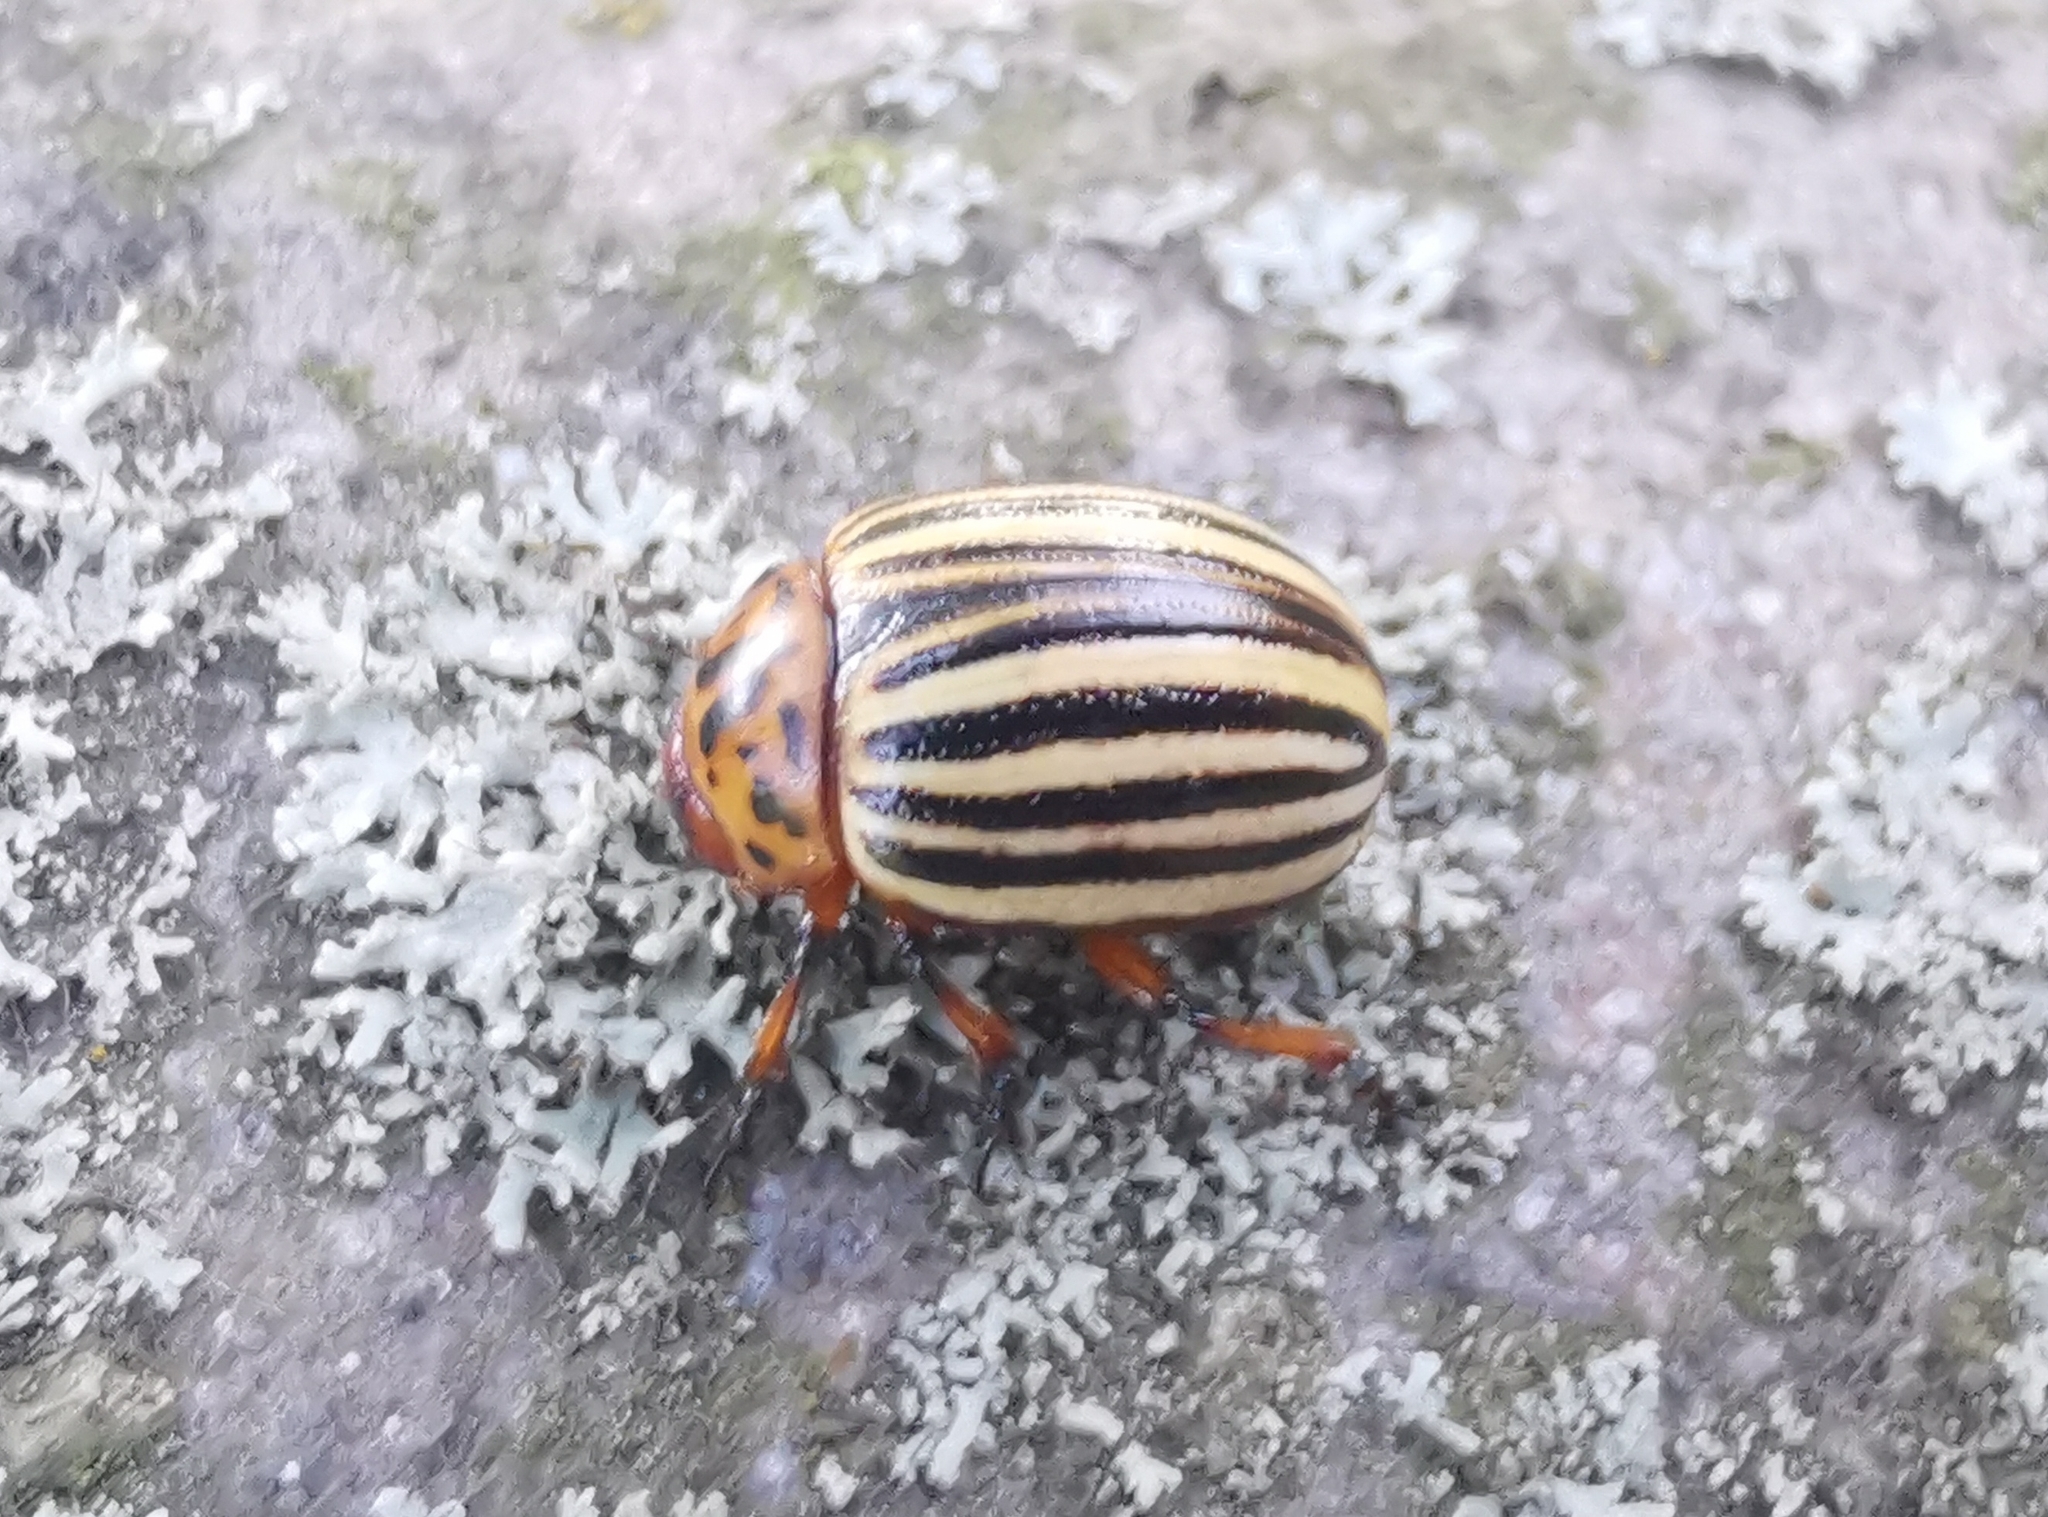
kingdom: Animalia
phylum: Arthropoda
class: Insecta
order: Coleoptera
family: Chrysomelidae
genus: Leptinotarsa
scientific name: Leptinotarsa decemlineata
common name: Colorado potato beetle
